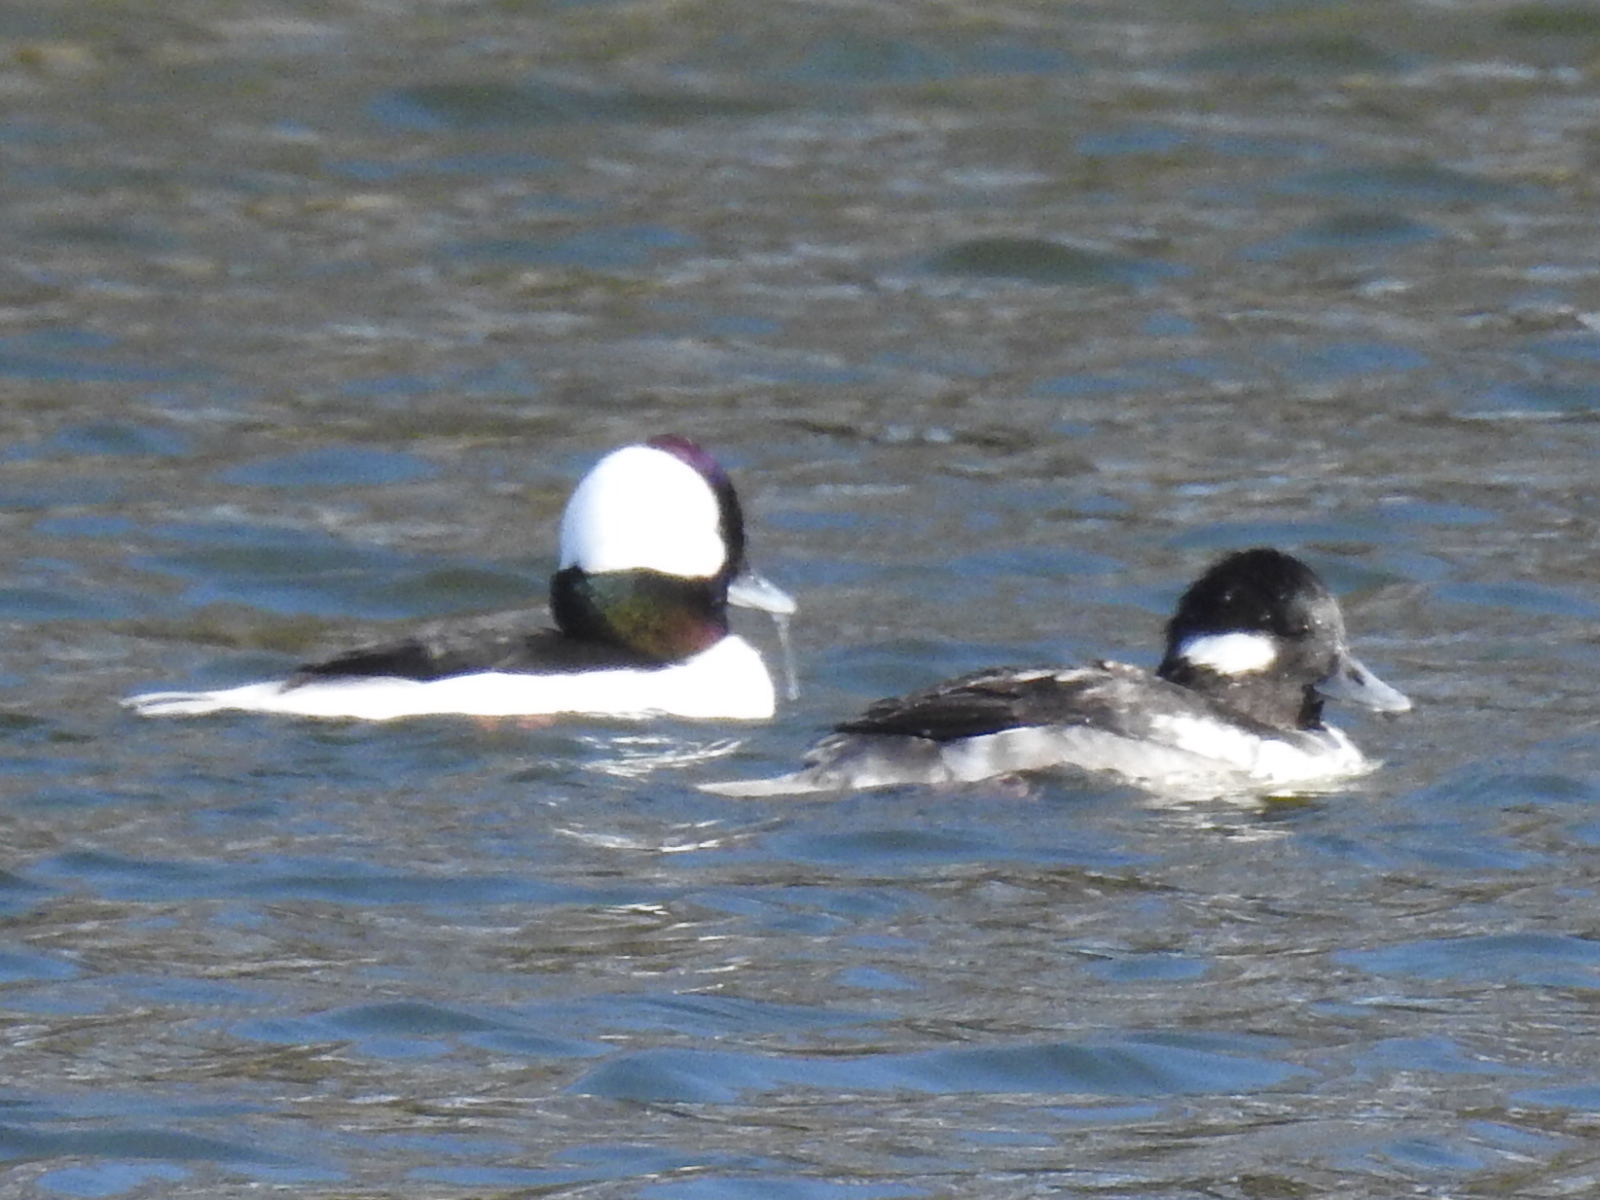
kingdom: Animalia
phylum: Chordata
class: Aves
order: Anseriformes
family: Anatidae
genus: Bucephala
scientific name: Bucephala albeola
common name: Bufflehead
